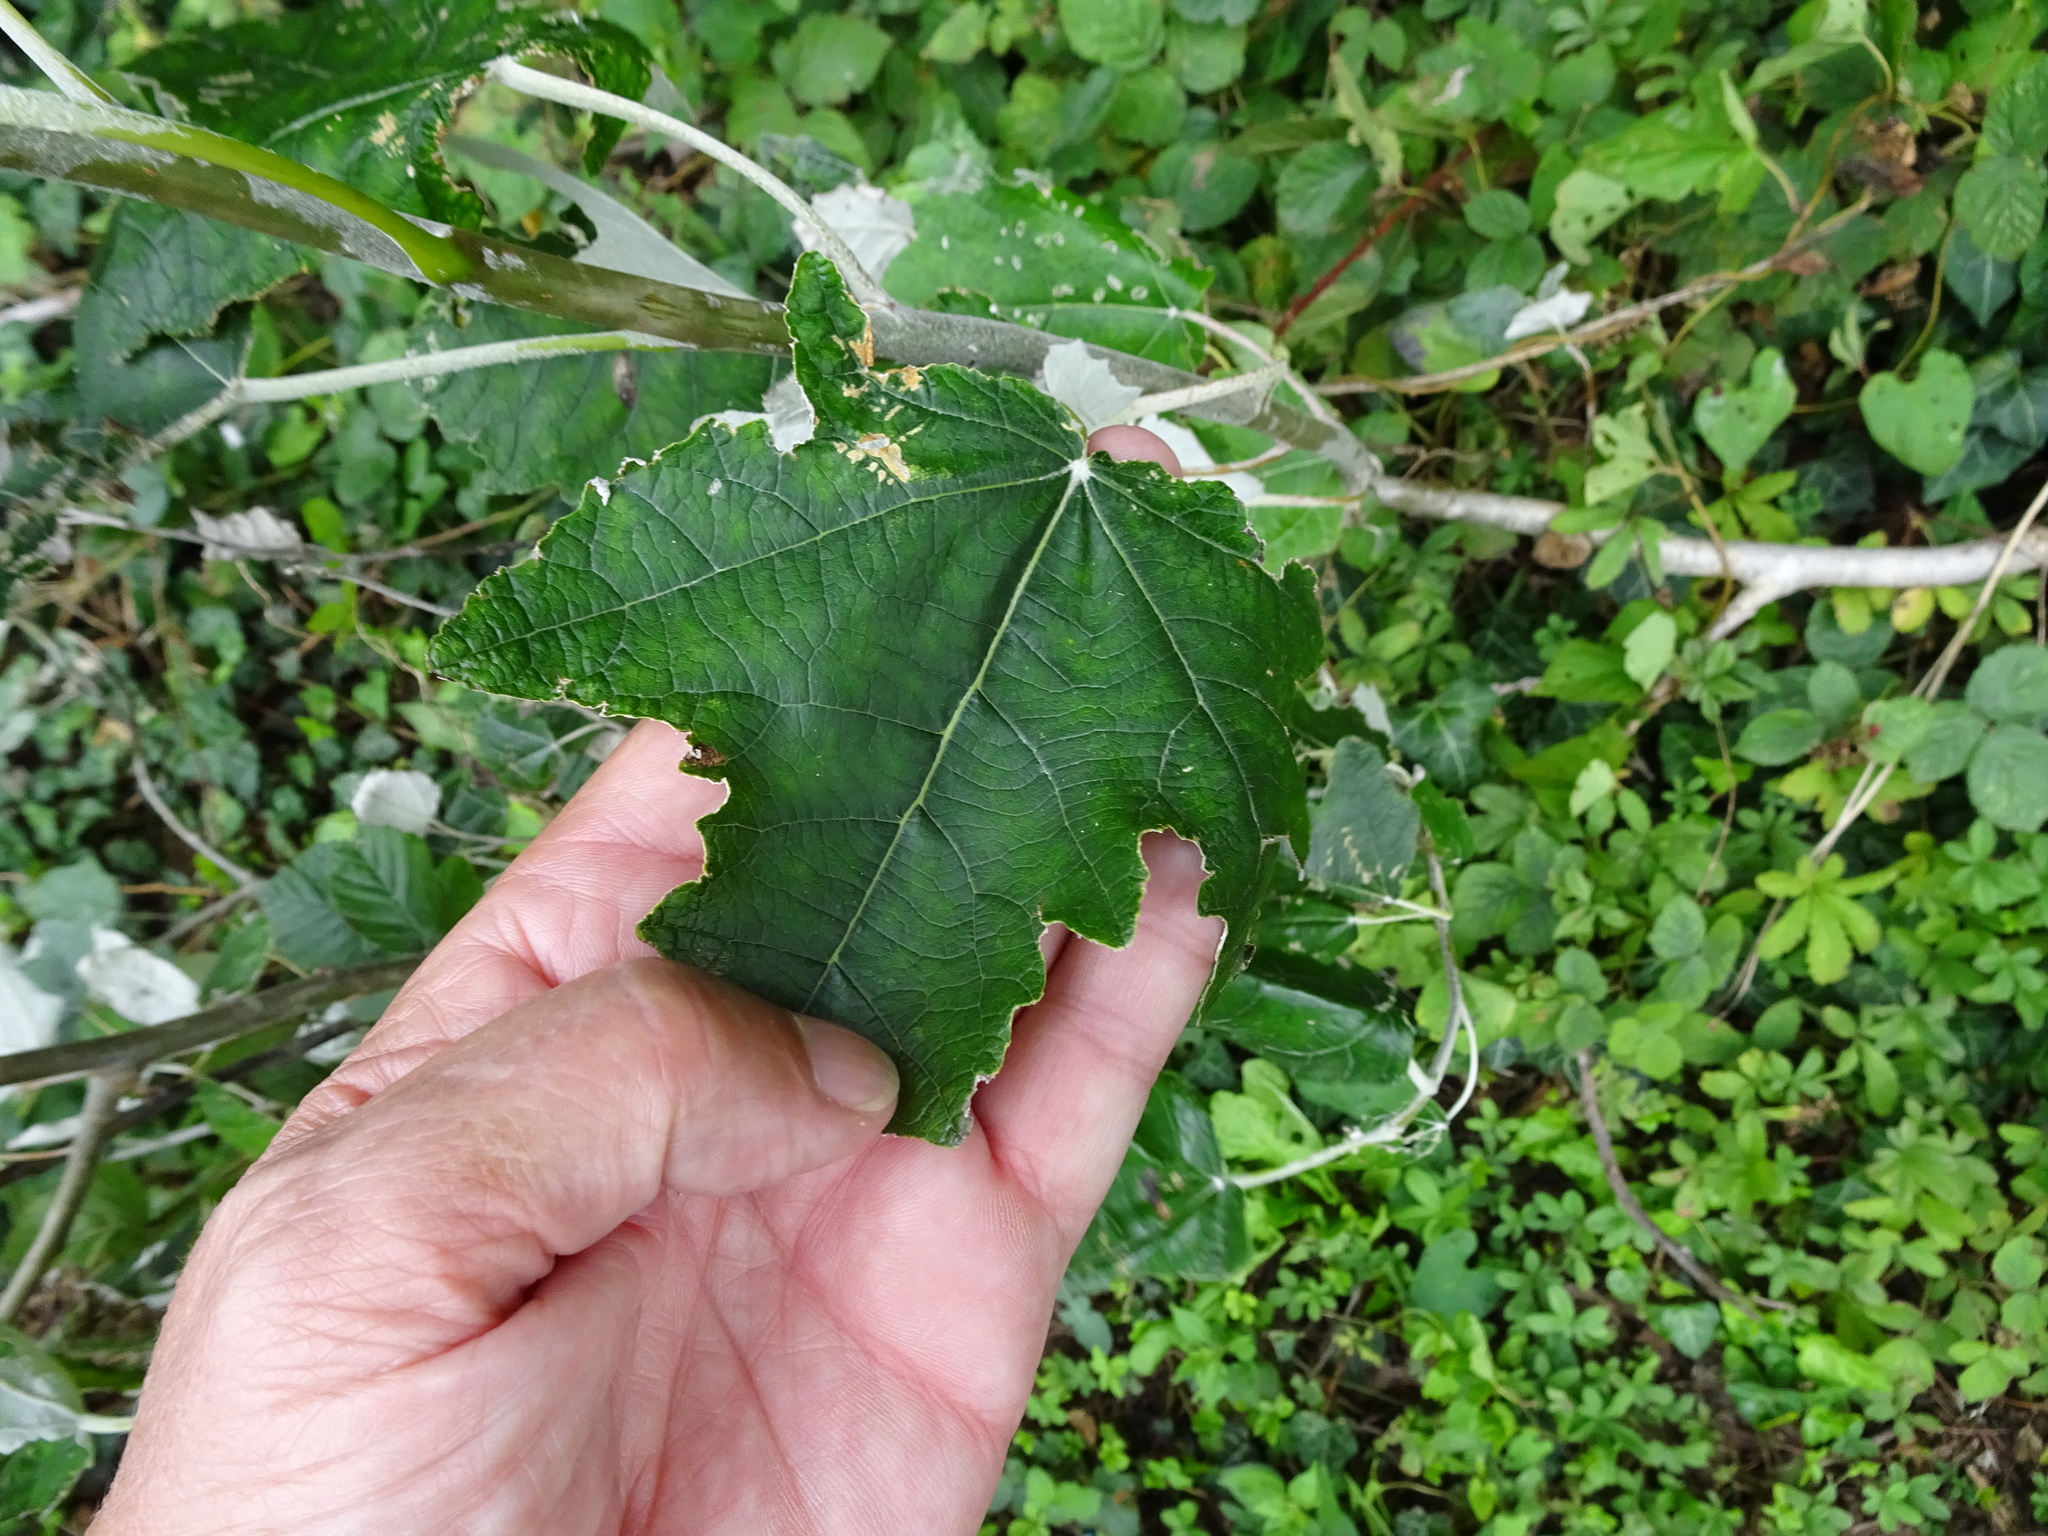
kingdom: Plantae
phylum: Tracheophyta
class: Magnoliopsida
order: Malpighiales
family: Salicaceae
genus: Populus
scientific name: Populus alba
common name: White poplar
